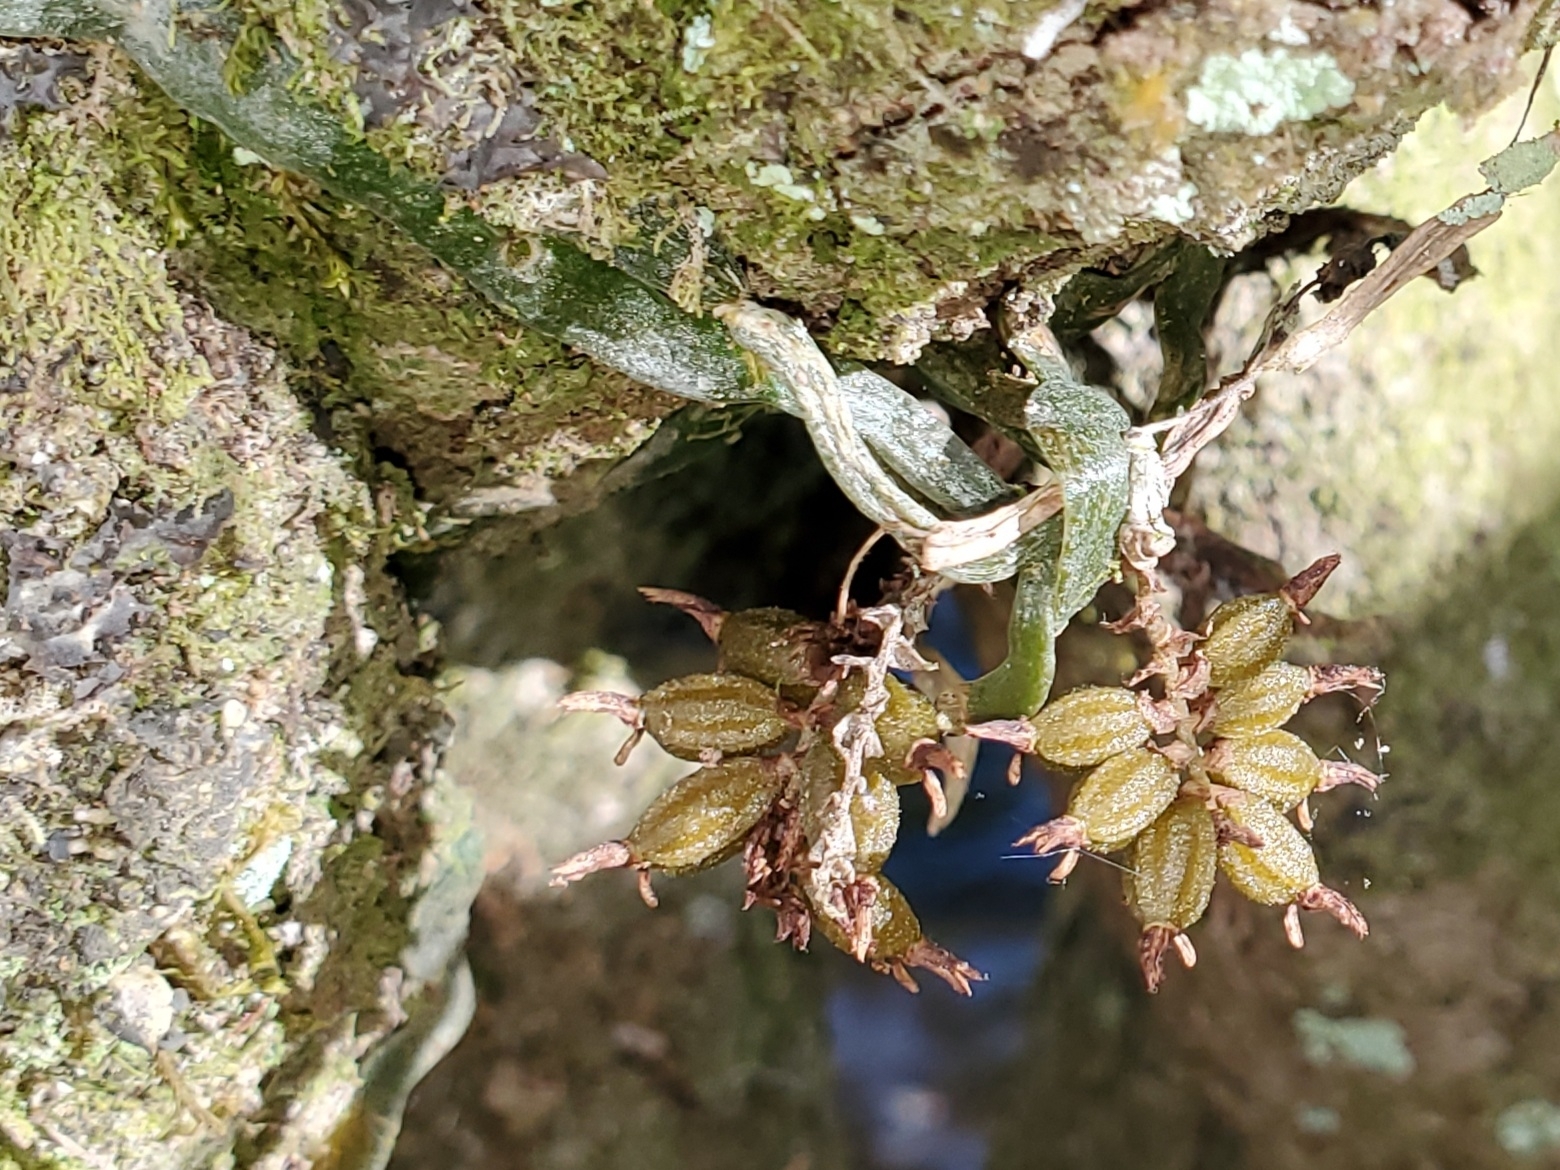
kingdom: Plantae
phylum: Tracheophyta
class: Liliopsida
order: Asparagales
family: Orchidaceae
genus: Campylocentrum
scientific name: Campylocentrum pachyrrhizum
